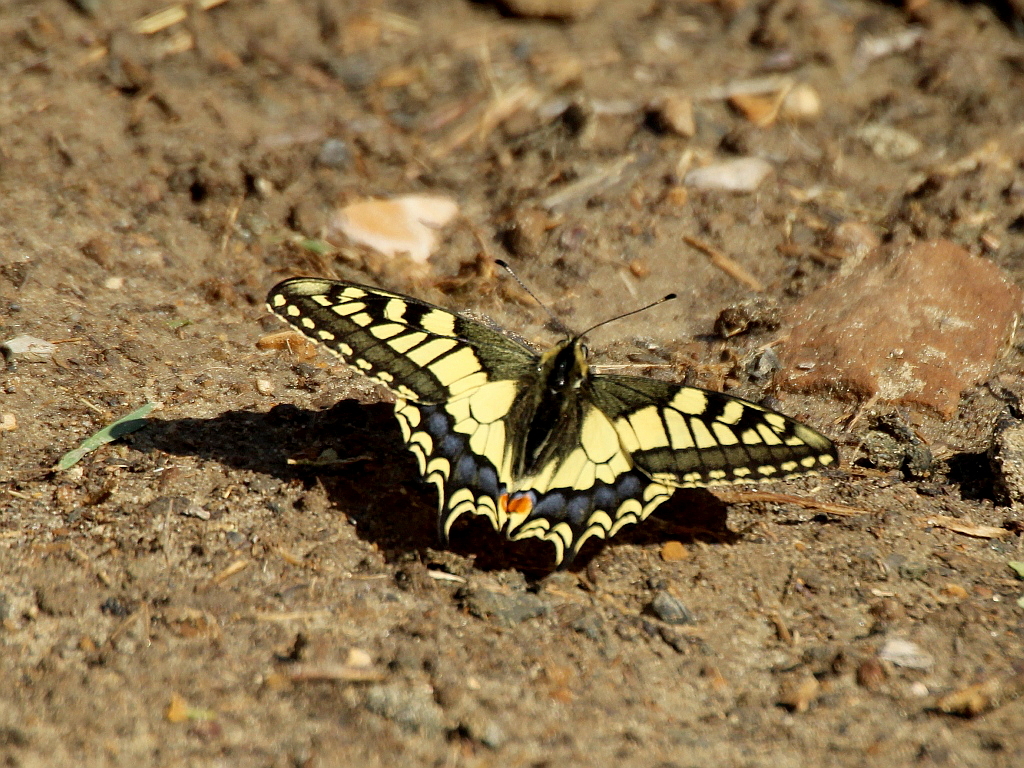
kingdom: Animalia
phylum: Arthropoda
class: Insecta
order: Lepidoptera
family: Papilionidae
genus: Papilio
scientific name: Papilio machaon
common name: Swallowtail
